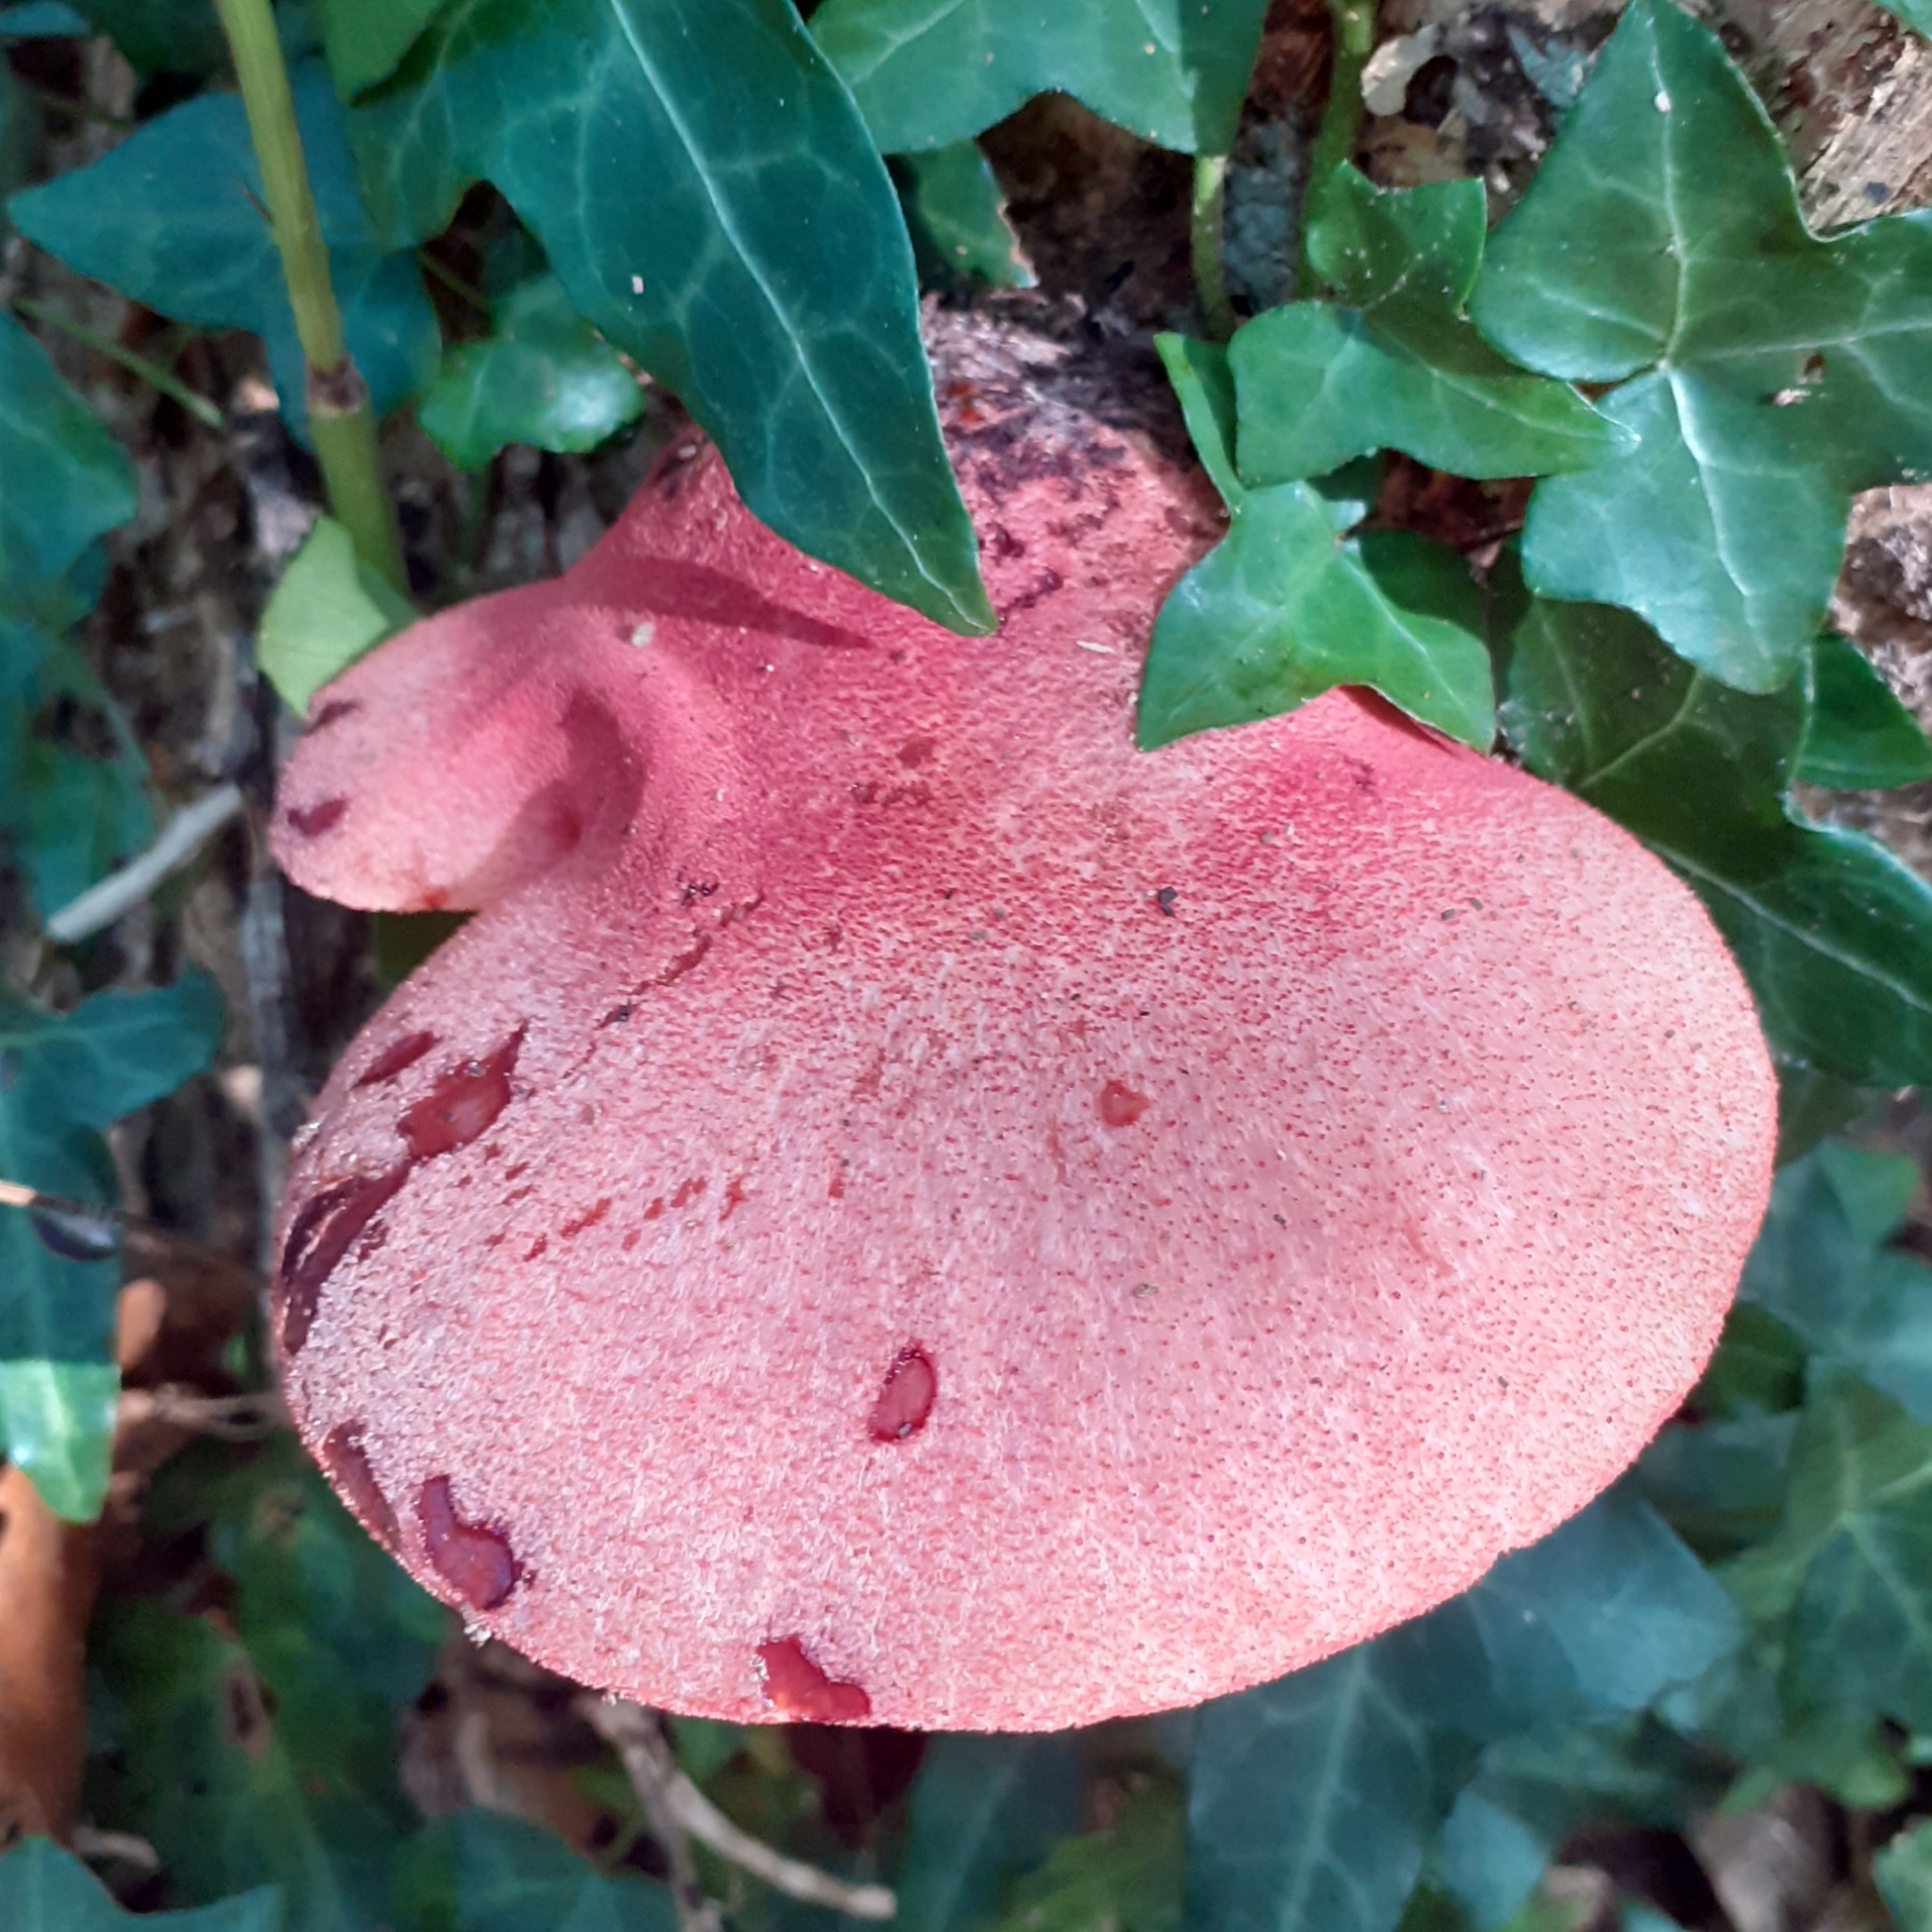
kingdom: Fungi
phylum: Basidiomycota
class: Agaricomycetes
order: Agaricales
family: Fistulinaceae
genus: Fistulina
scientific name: Fistulina hepatica
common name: Beef-steak fungus
